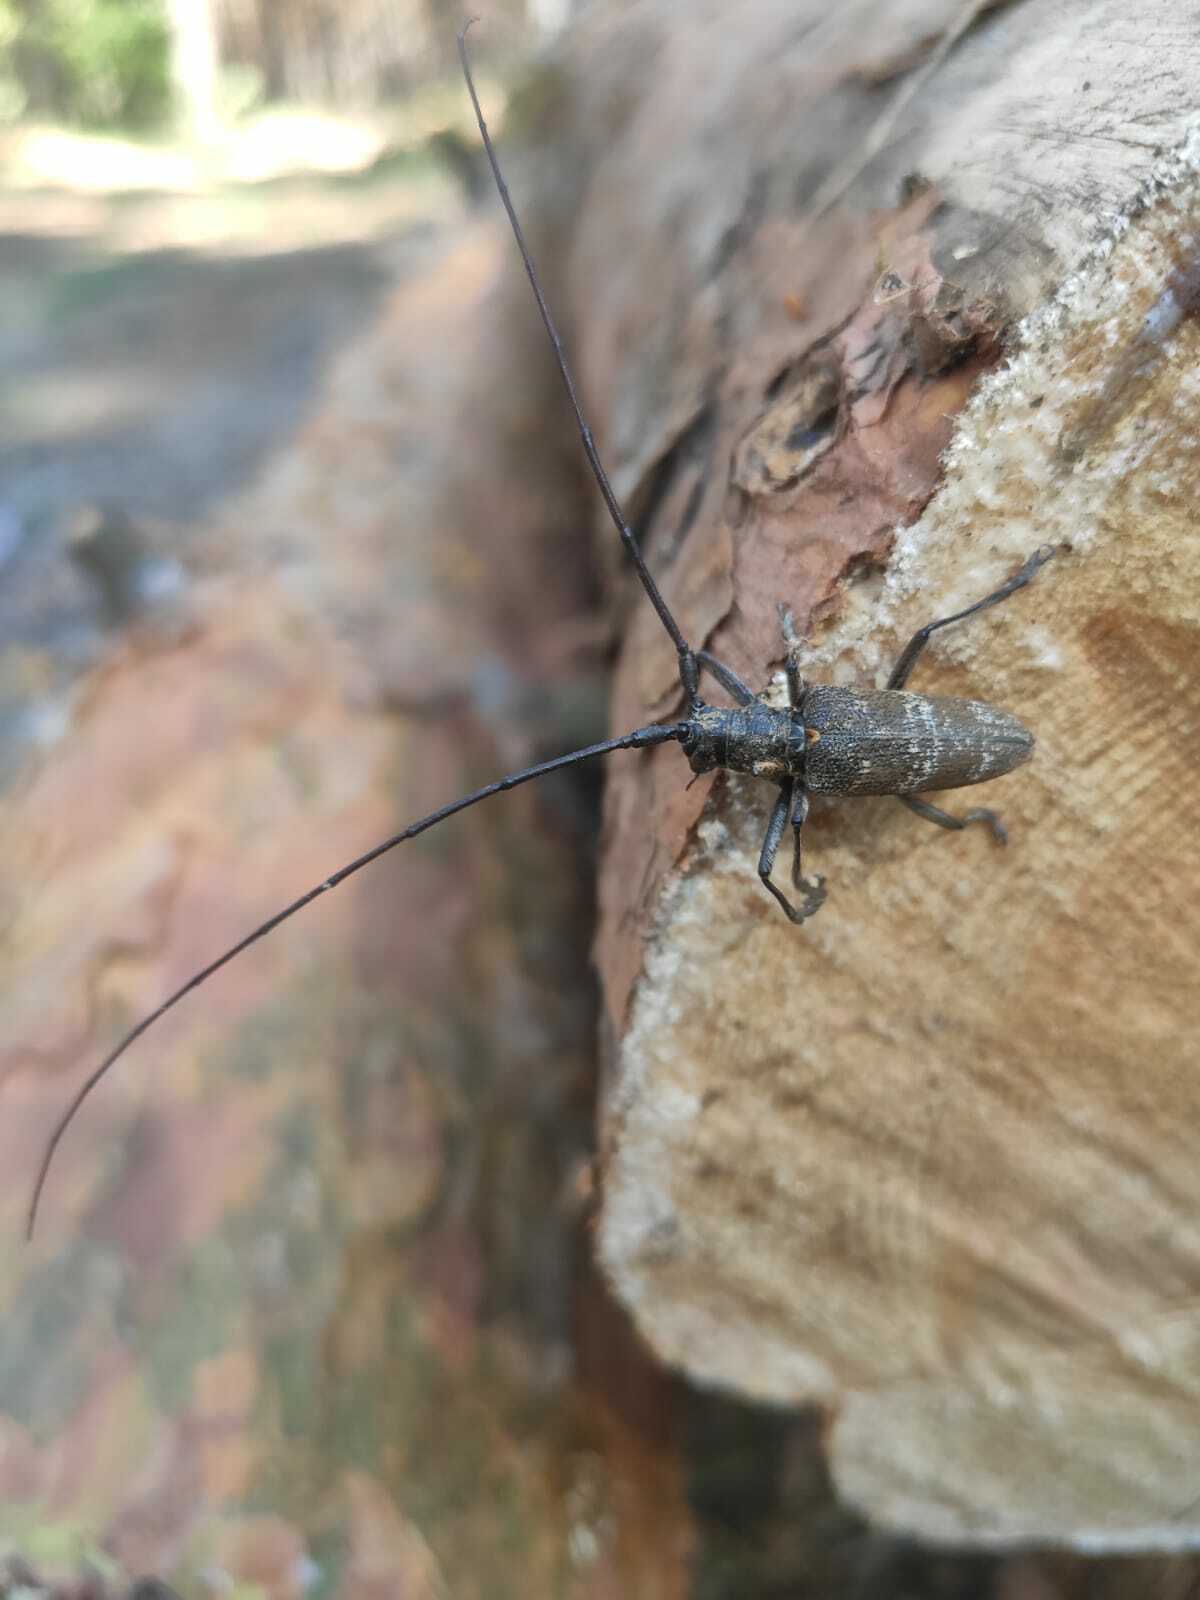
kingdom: Animalia
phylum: Arthropoda
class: Insecta
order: Coleoptera
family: Cerambycidae
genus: Monochamus
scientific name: Monochamus galloprovincialis
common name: Pine sawyer
